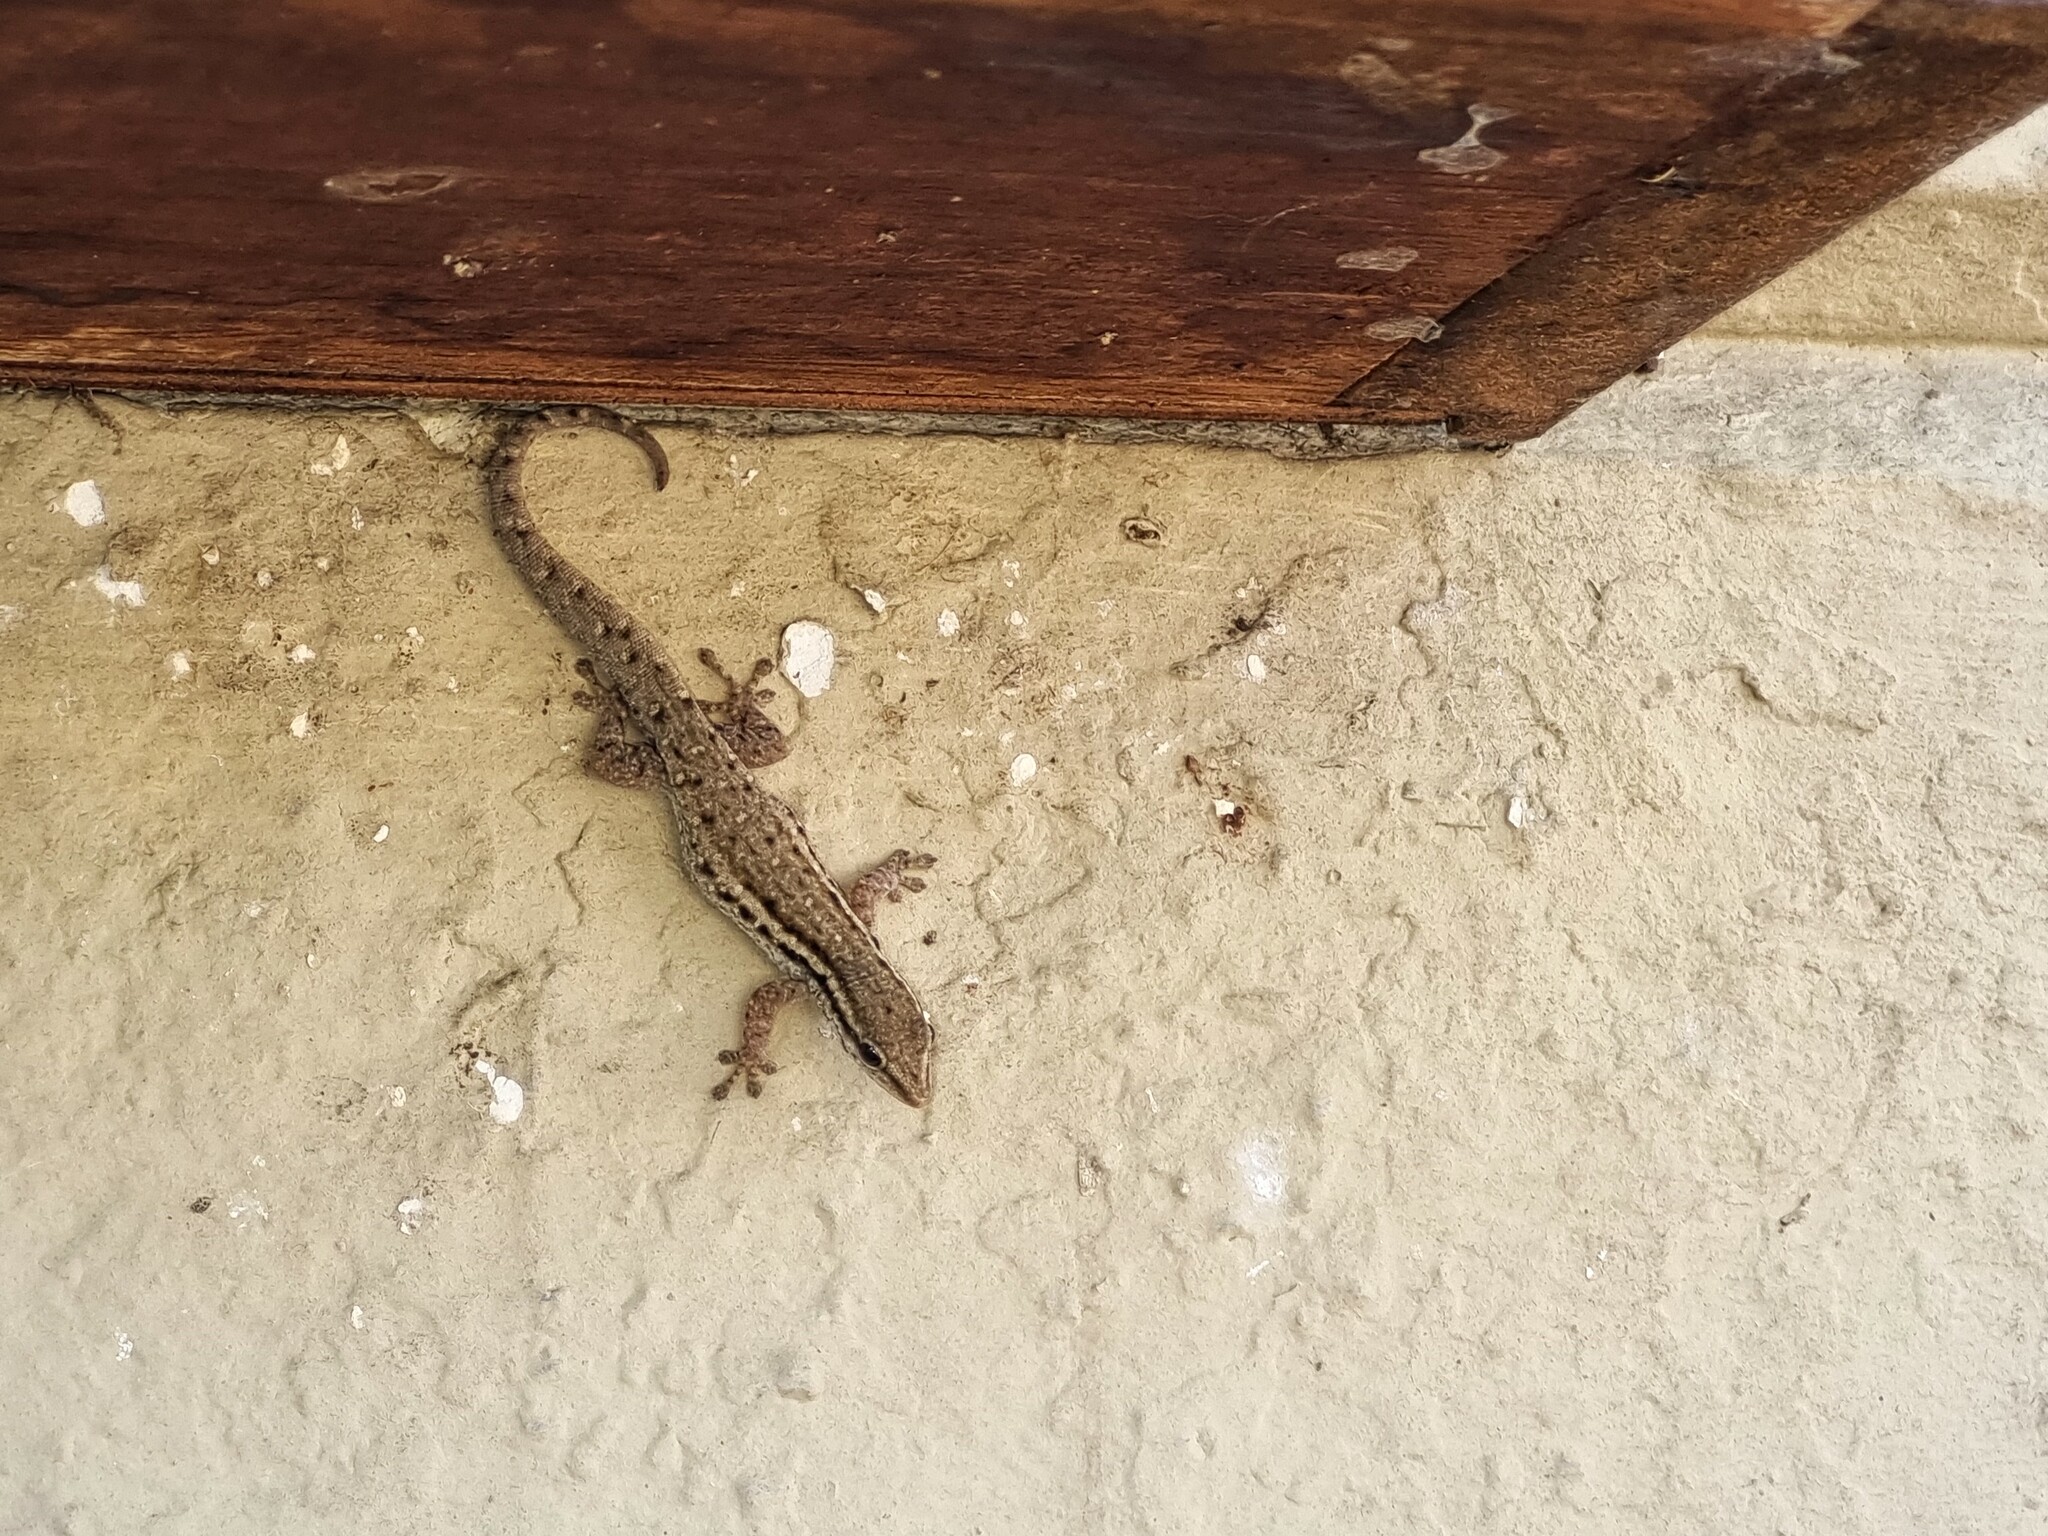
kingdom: Animalia
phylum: Chordata
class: Squamata
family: Gekkonidae
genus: Lygodactylus
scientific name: Lygodactylus capensis
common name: Cape dwarf gecko
